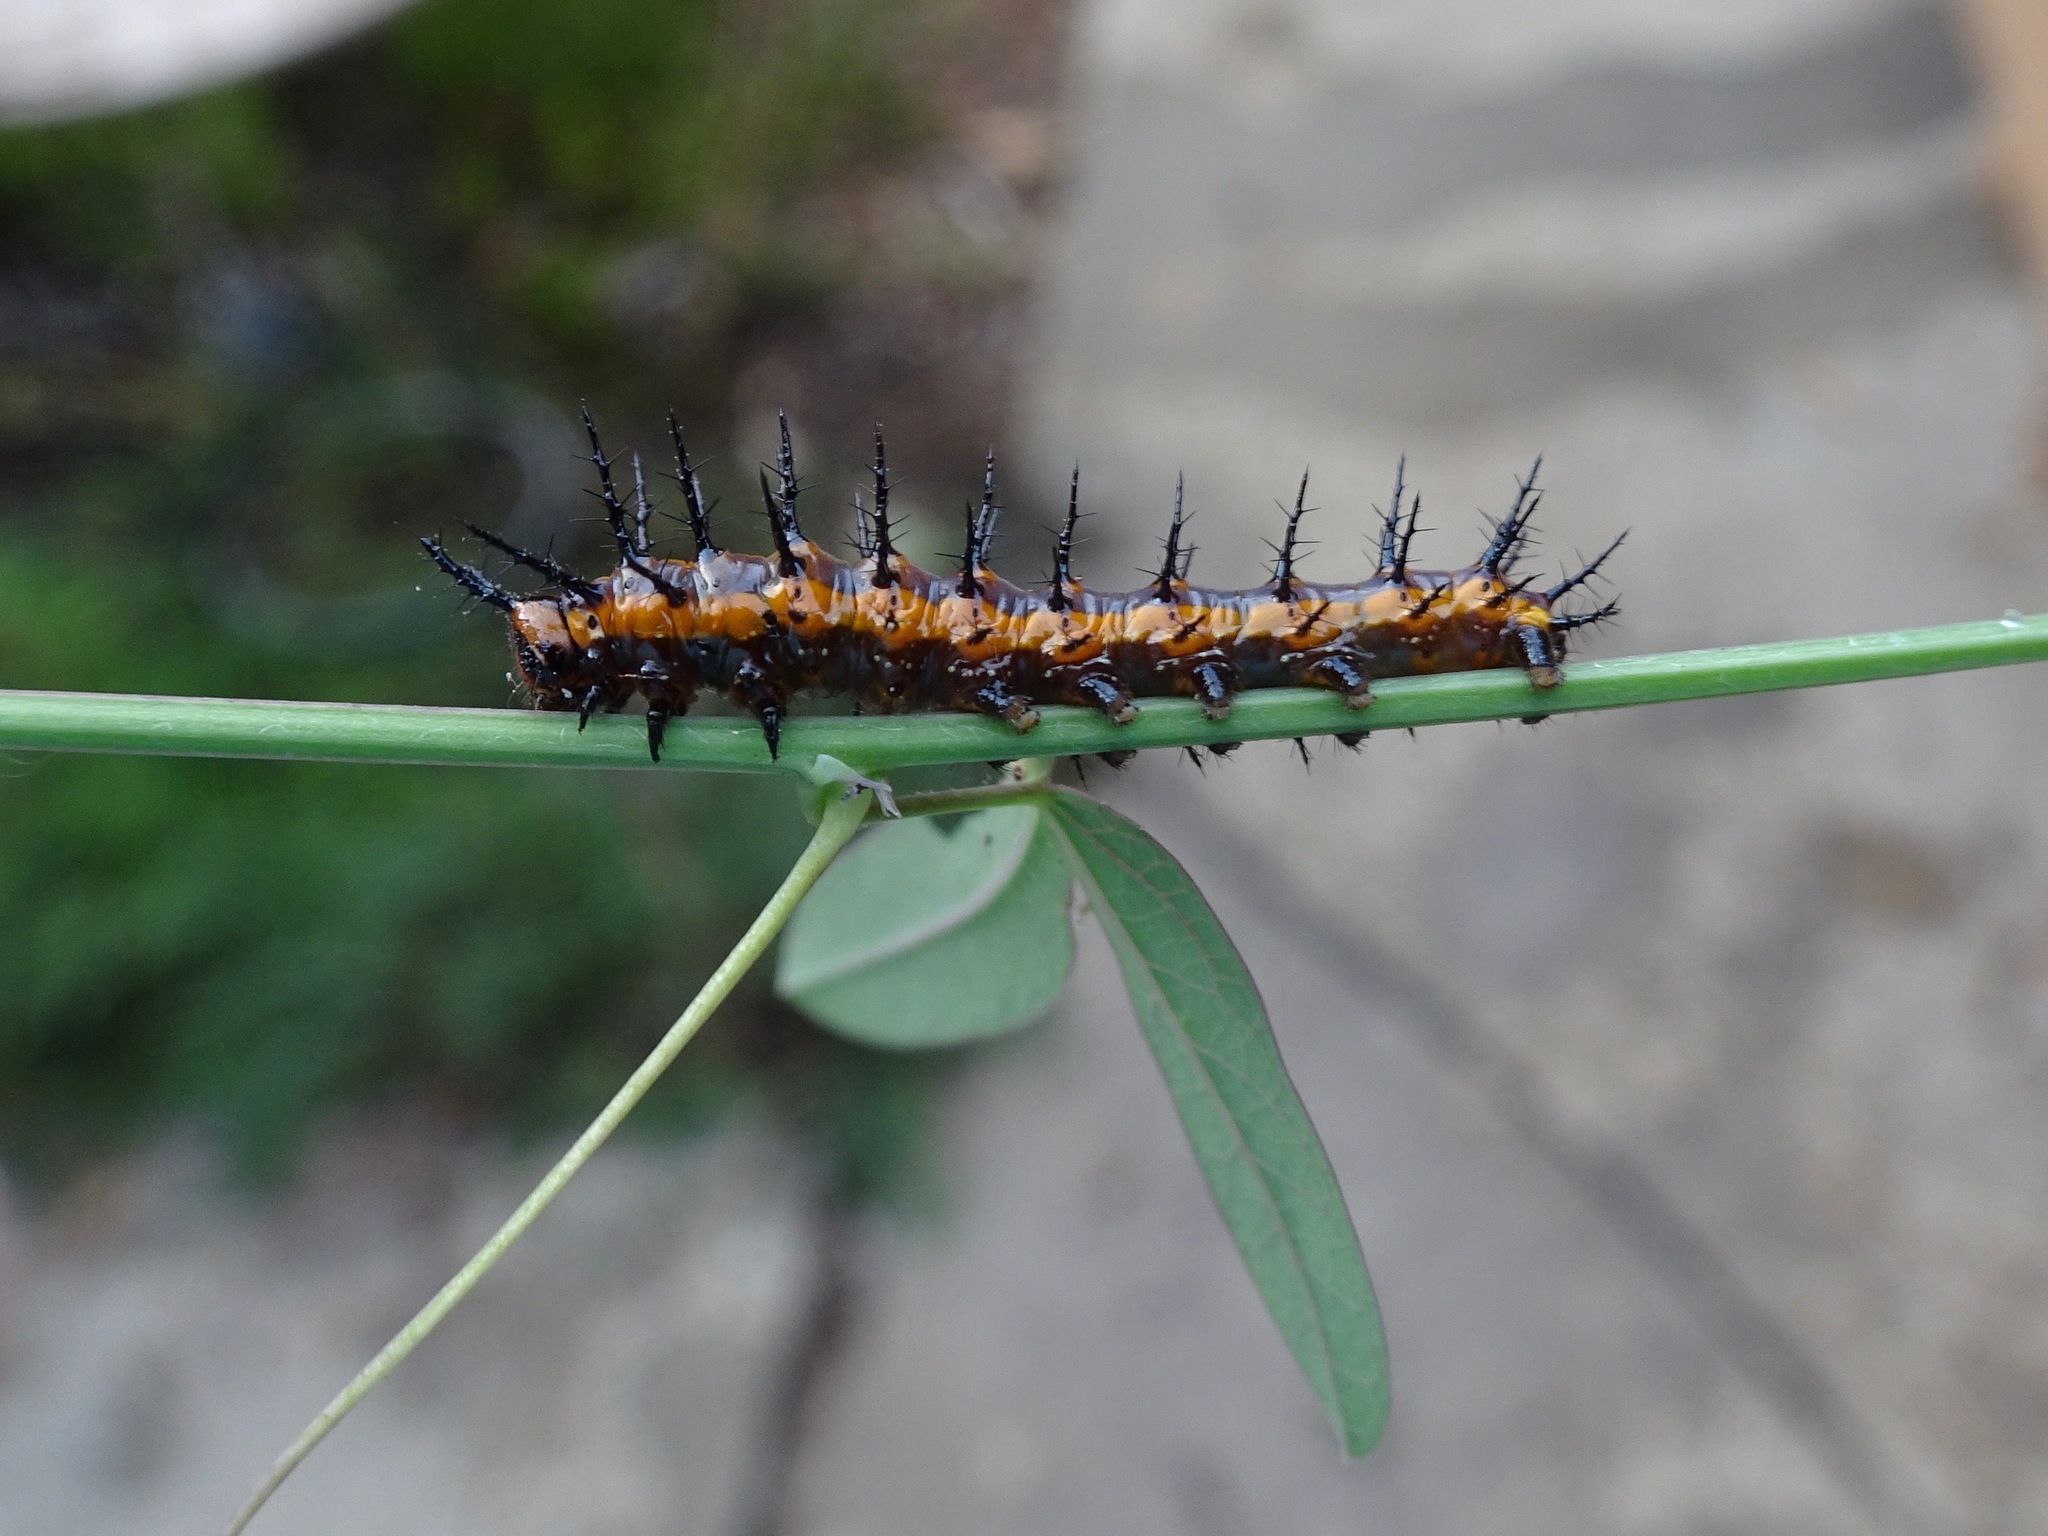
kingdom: Animalia
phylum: Arthropoda
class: Insecta
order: Lepidoptera
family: Nymphalidae
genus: Dione
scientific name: Dione vanillae
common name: Gulf fritillary
